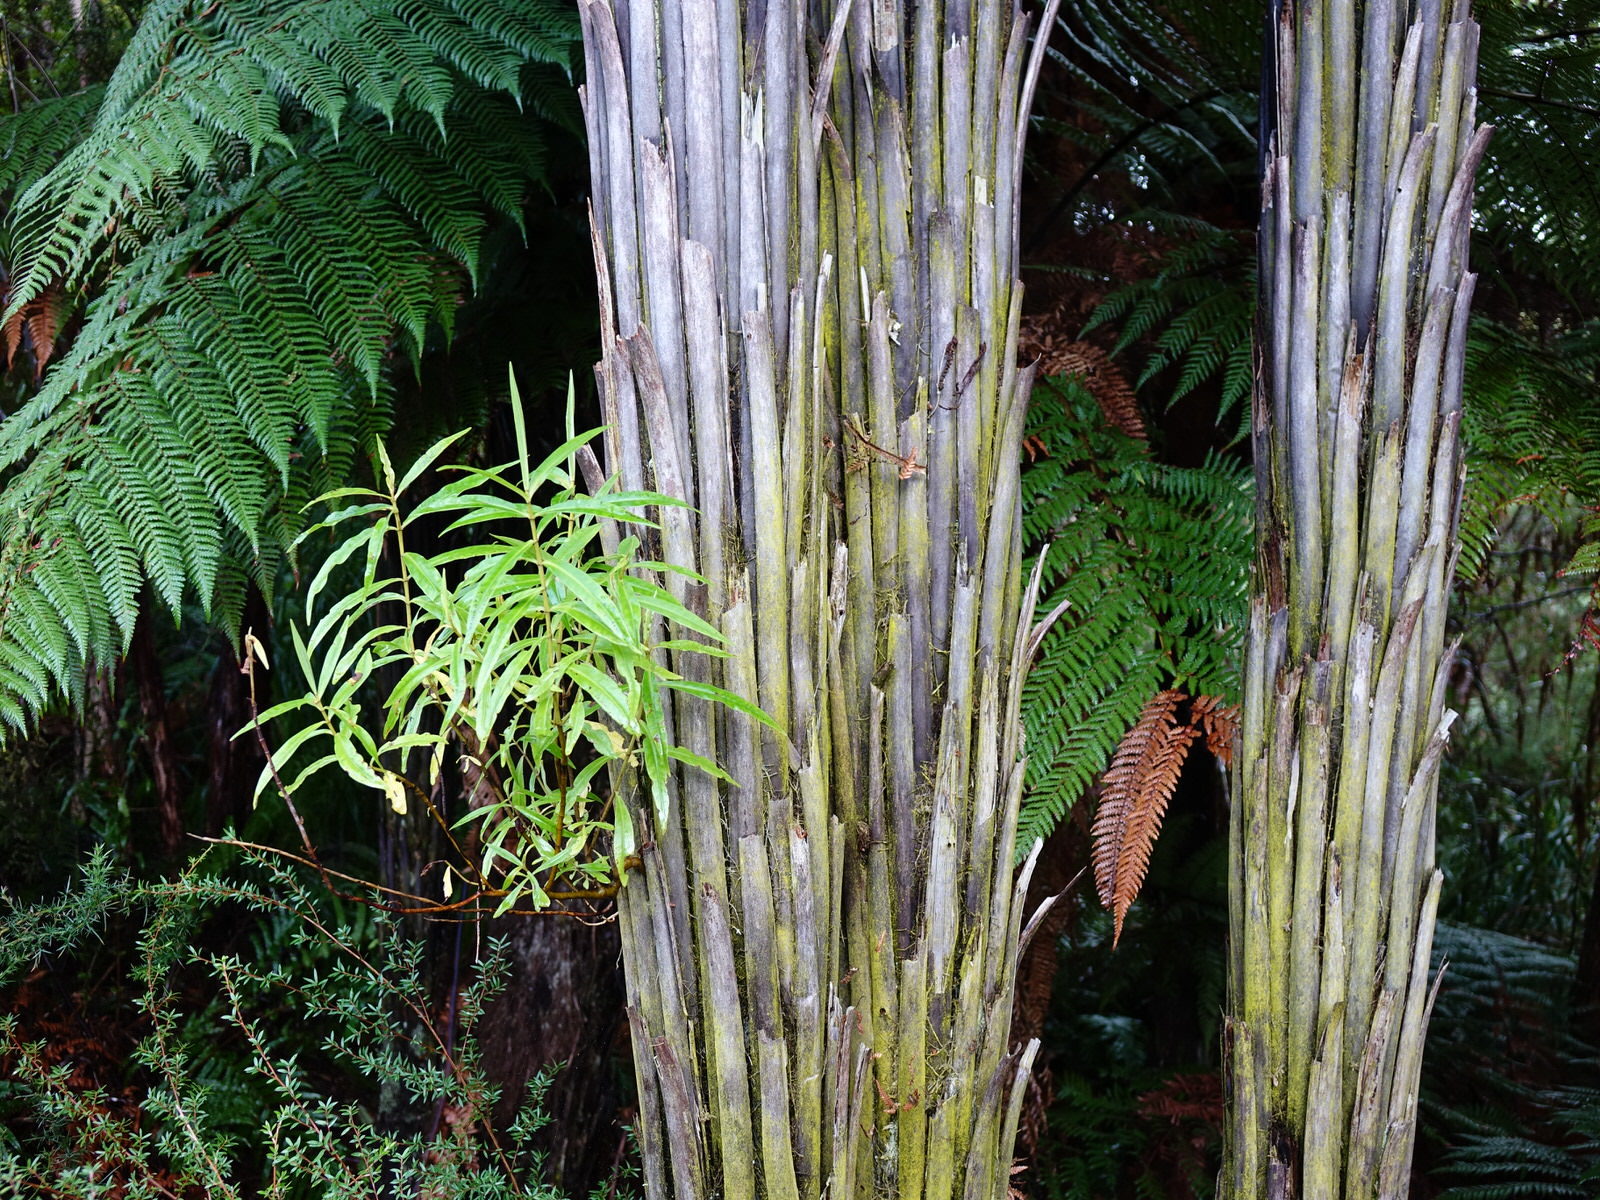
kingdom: Plantae
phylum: Tracheophyta
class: Magnoliopsida
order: Lamiales
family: Plantaginaceae
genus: Veronica
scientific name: Veronica stricta
